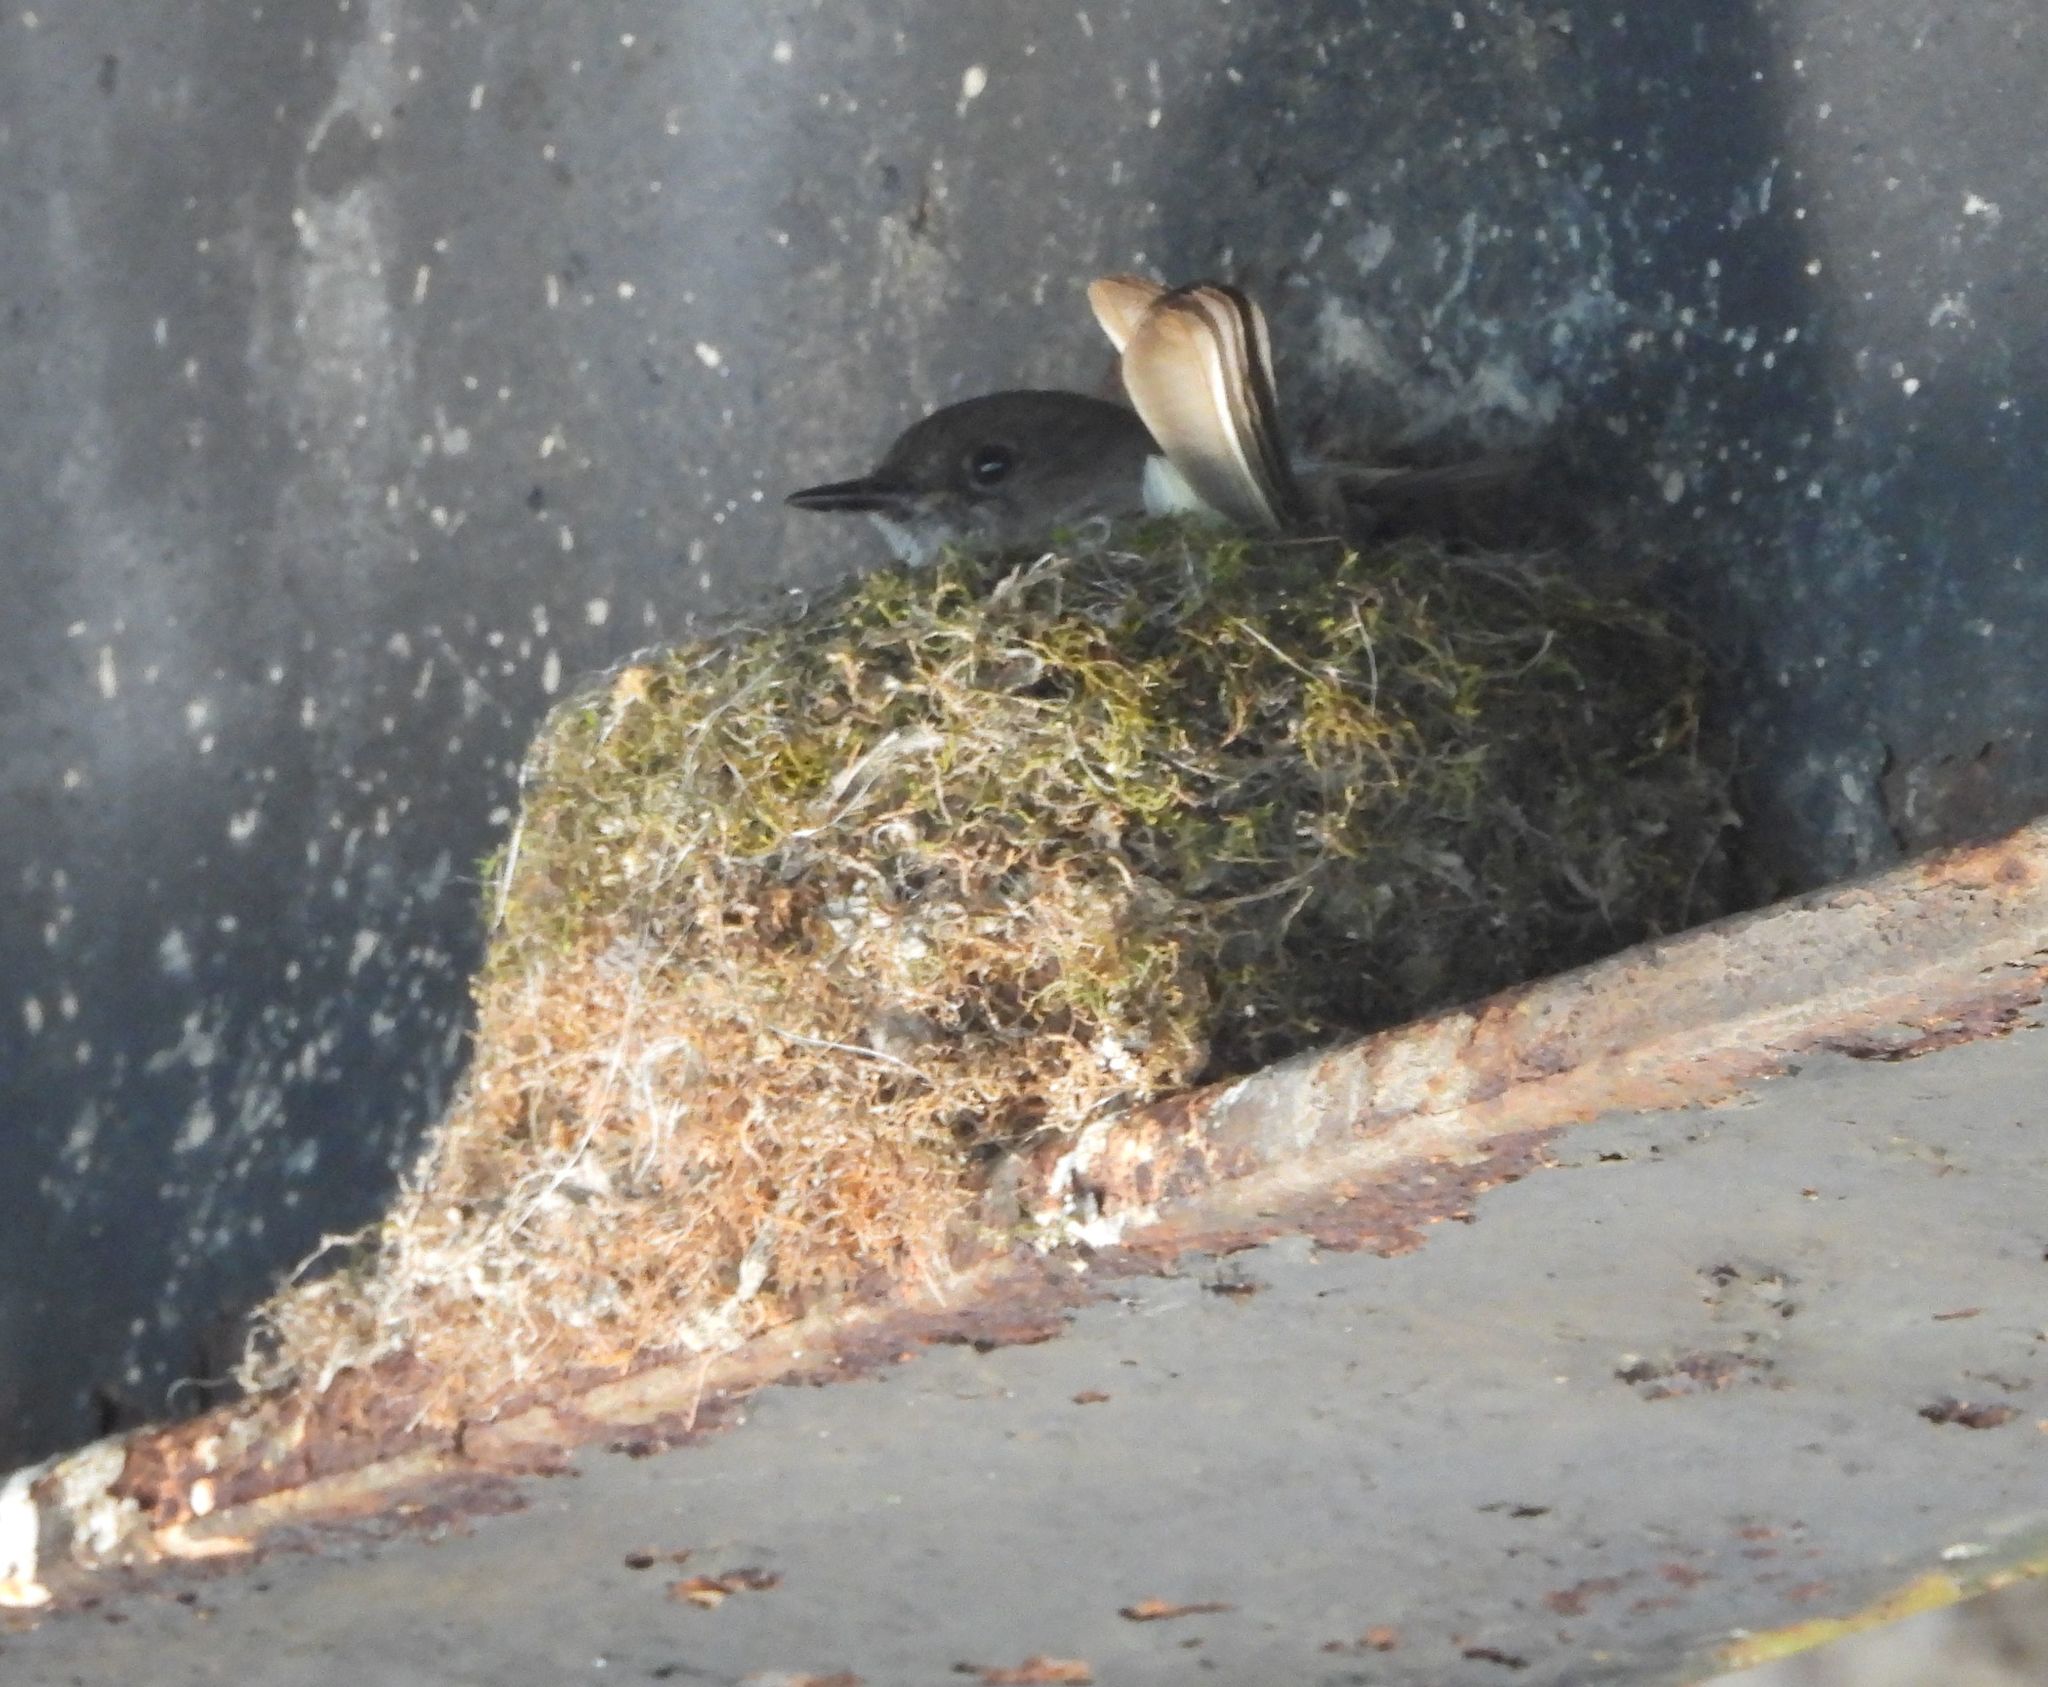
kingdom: Animalia
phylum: Chordata
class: Aves
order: Passeriformes
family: Tyrannidae
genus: Sayornis
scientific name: Sayornis phoebe
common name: Eastern phoebe
